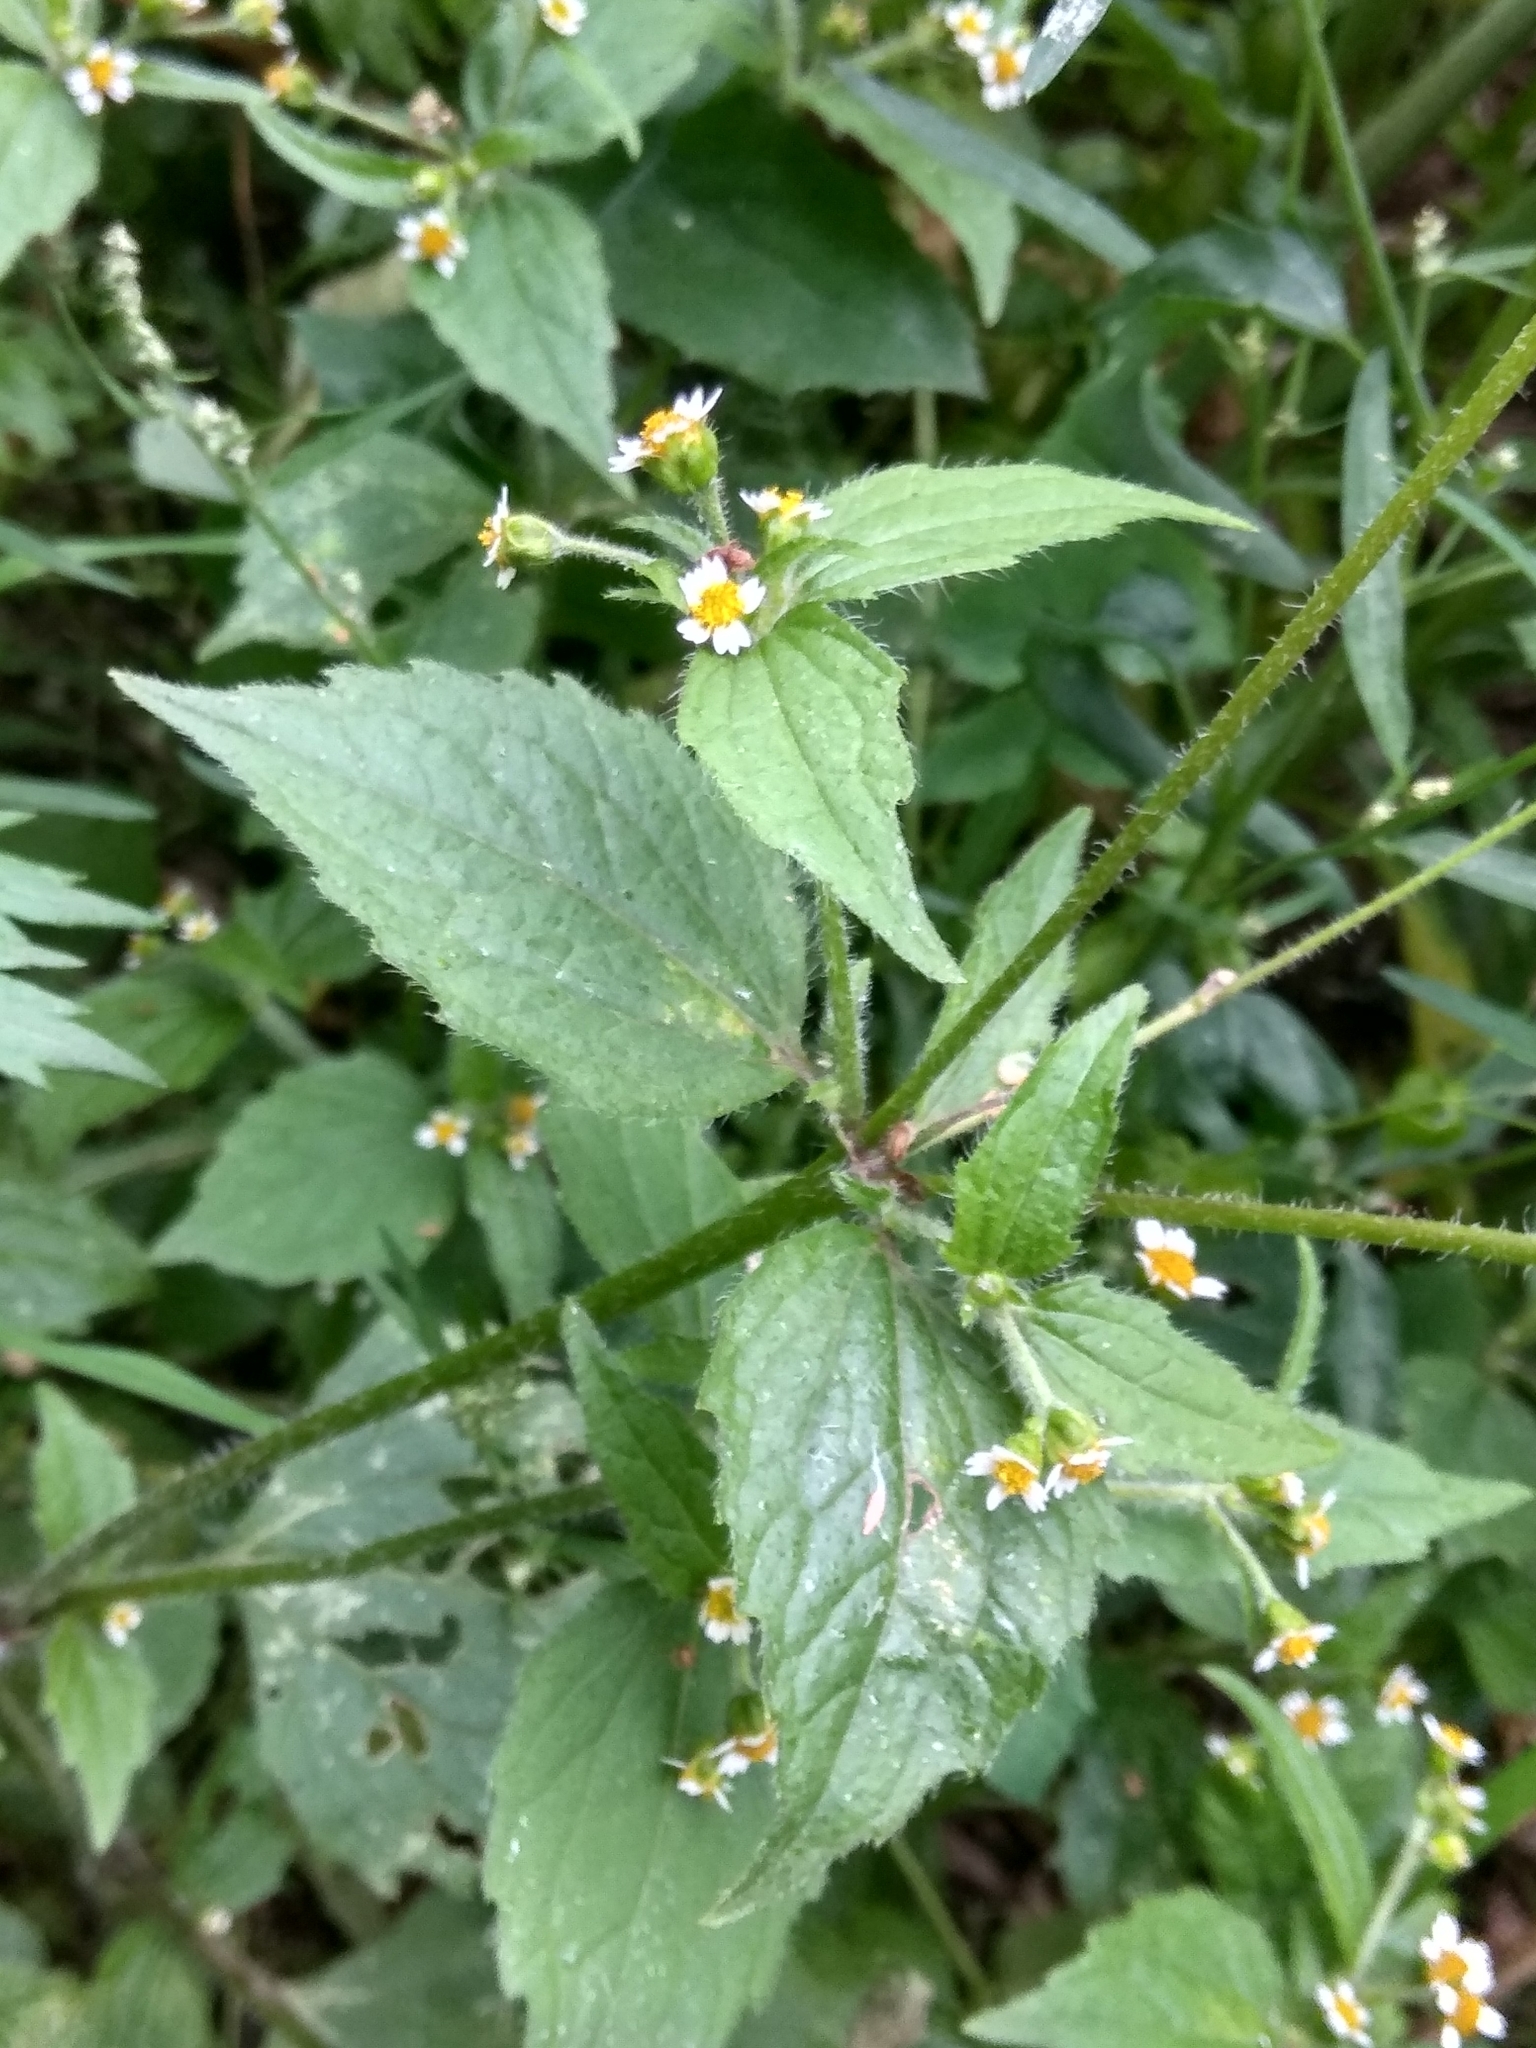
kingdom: Plantae
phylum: Tracheophyta
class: Magnoliopsida
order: Asterales
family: Asteraceae
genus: Galinsoga
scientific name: Galinsoga quadriradiata
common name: Shaggy soldier
